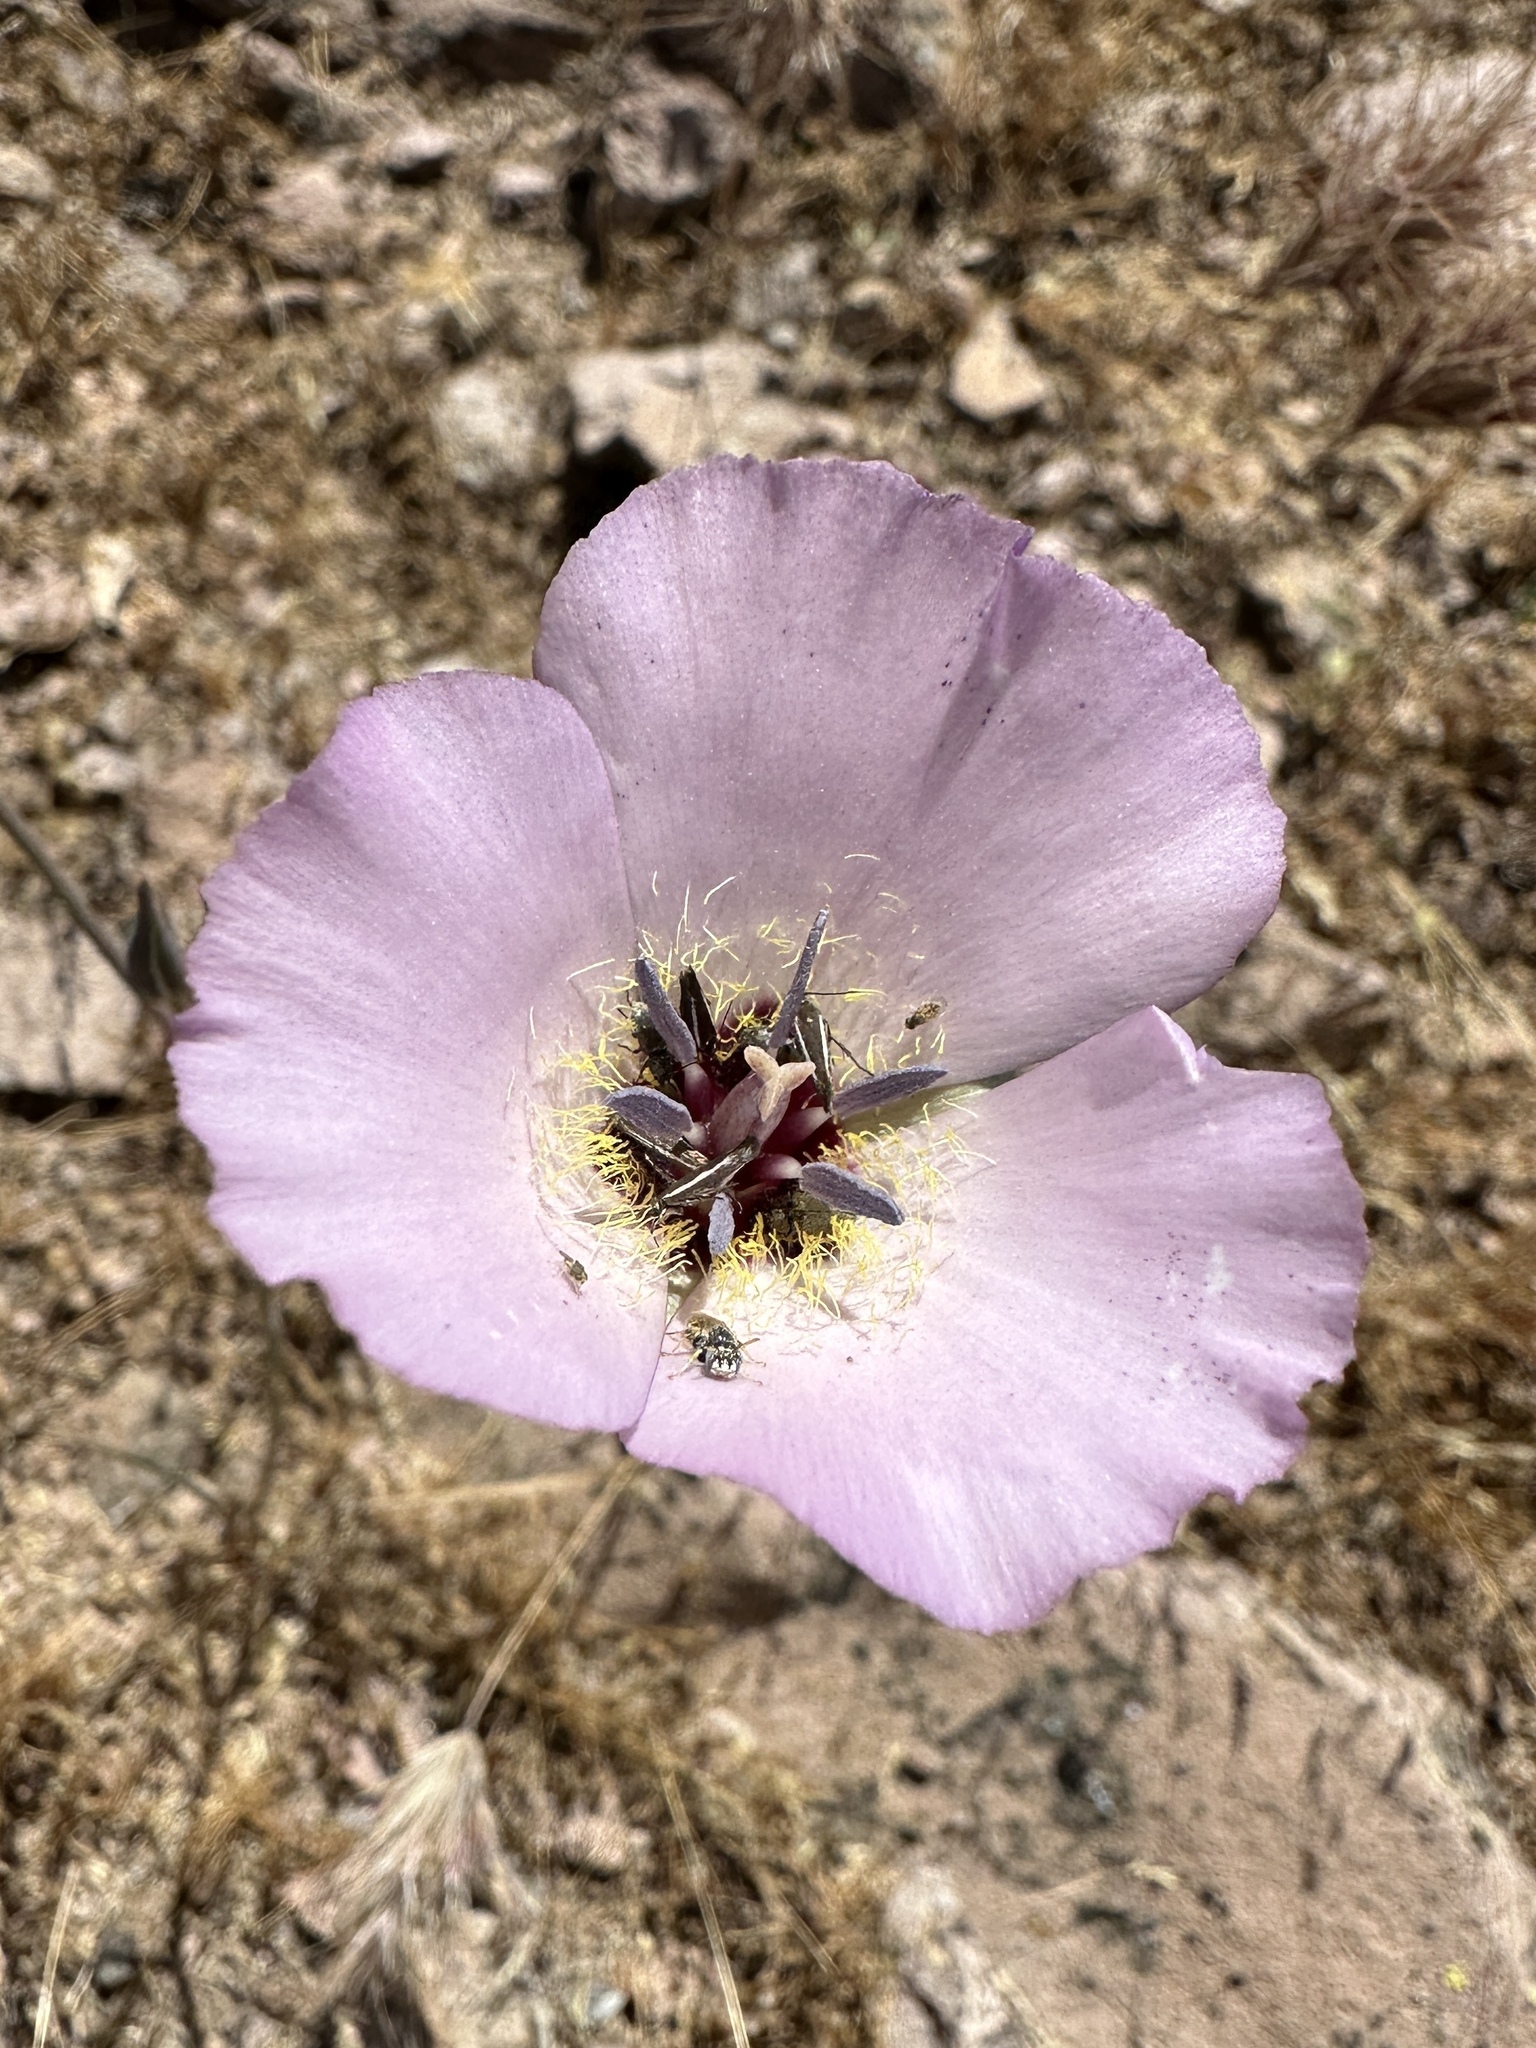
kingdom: Plantae
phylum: Tracheophyta
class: Liliopsida
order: Liliales
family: Liliaceae
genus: Calochortus
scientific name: Calochortus splendens
